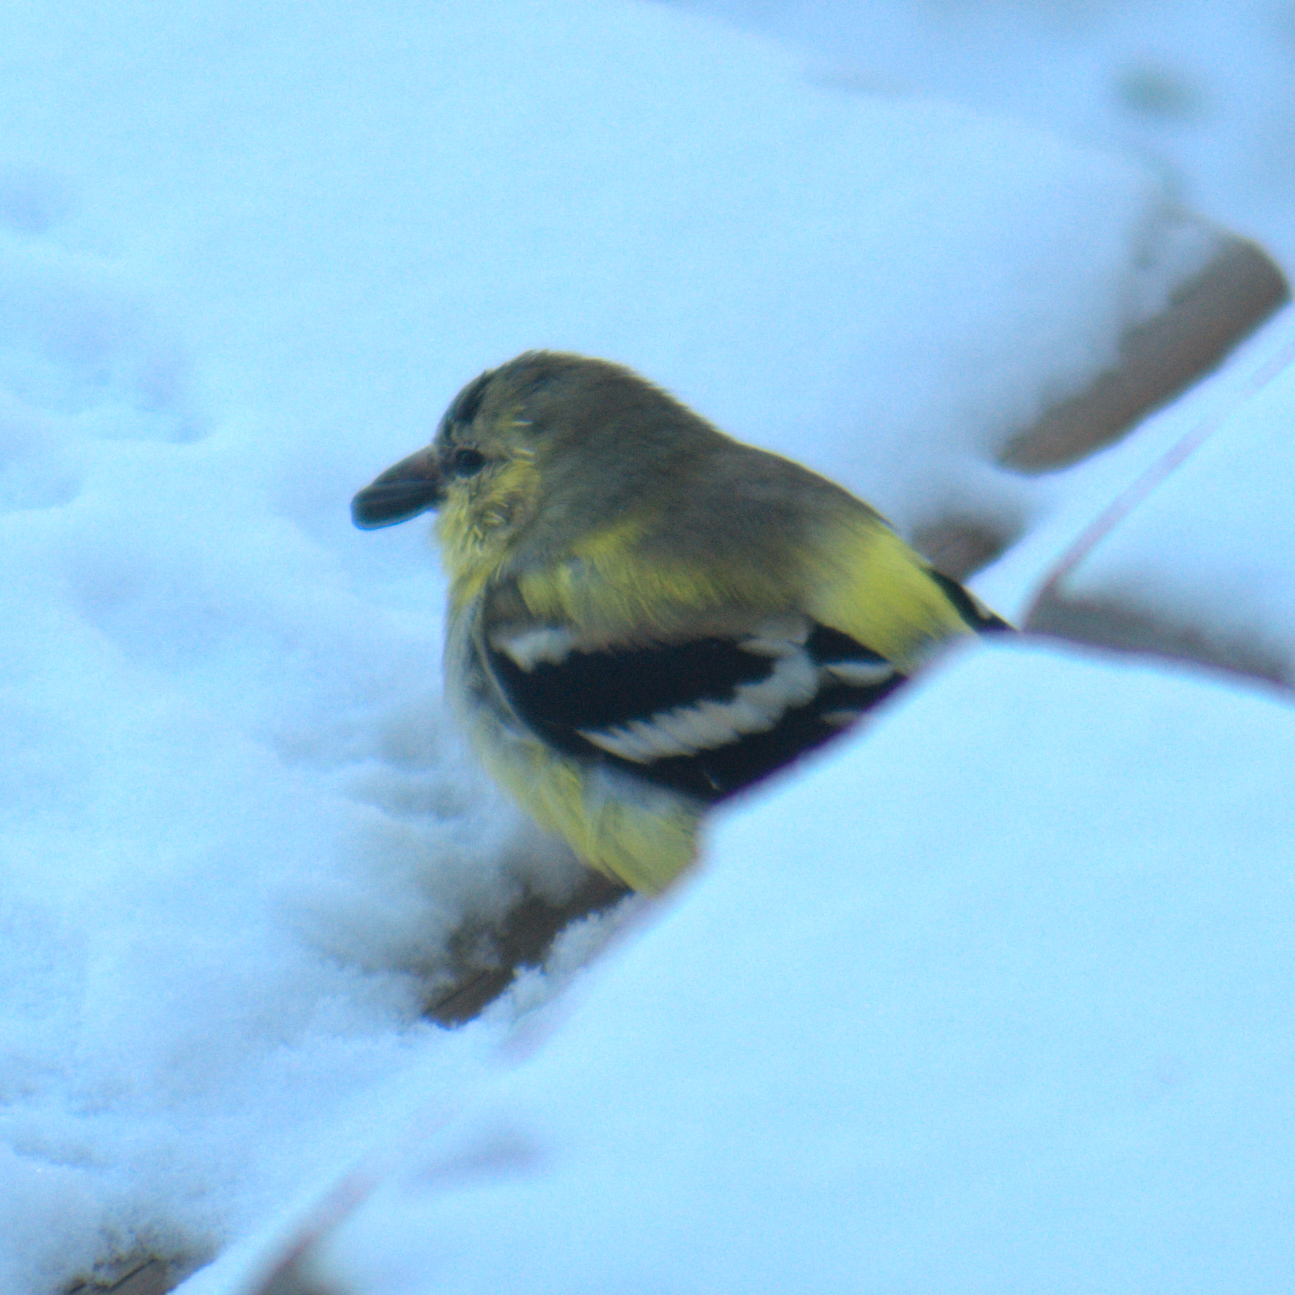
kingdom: Animalia
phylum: Chordata
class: Aves
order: Passeriformes
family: Fringillidae
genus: Spinus
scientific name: Spinus tristis
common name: American goldfinch
